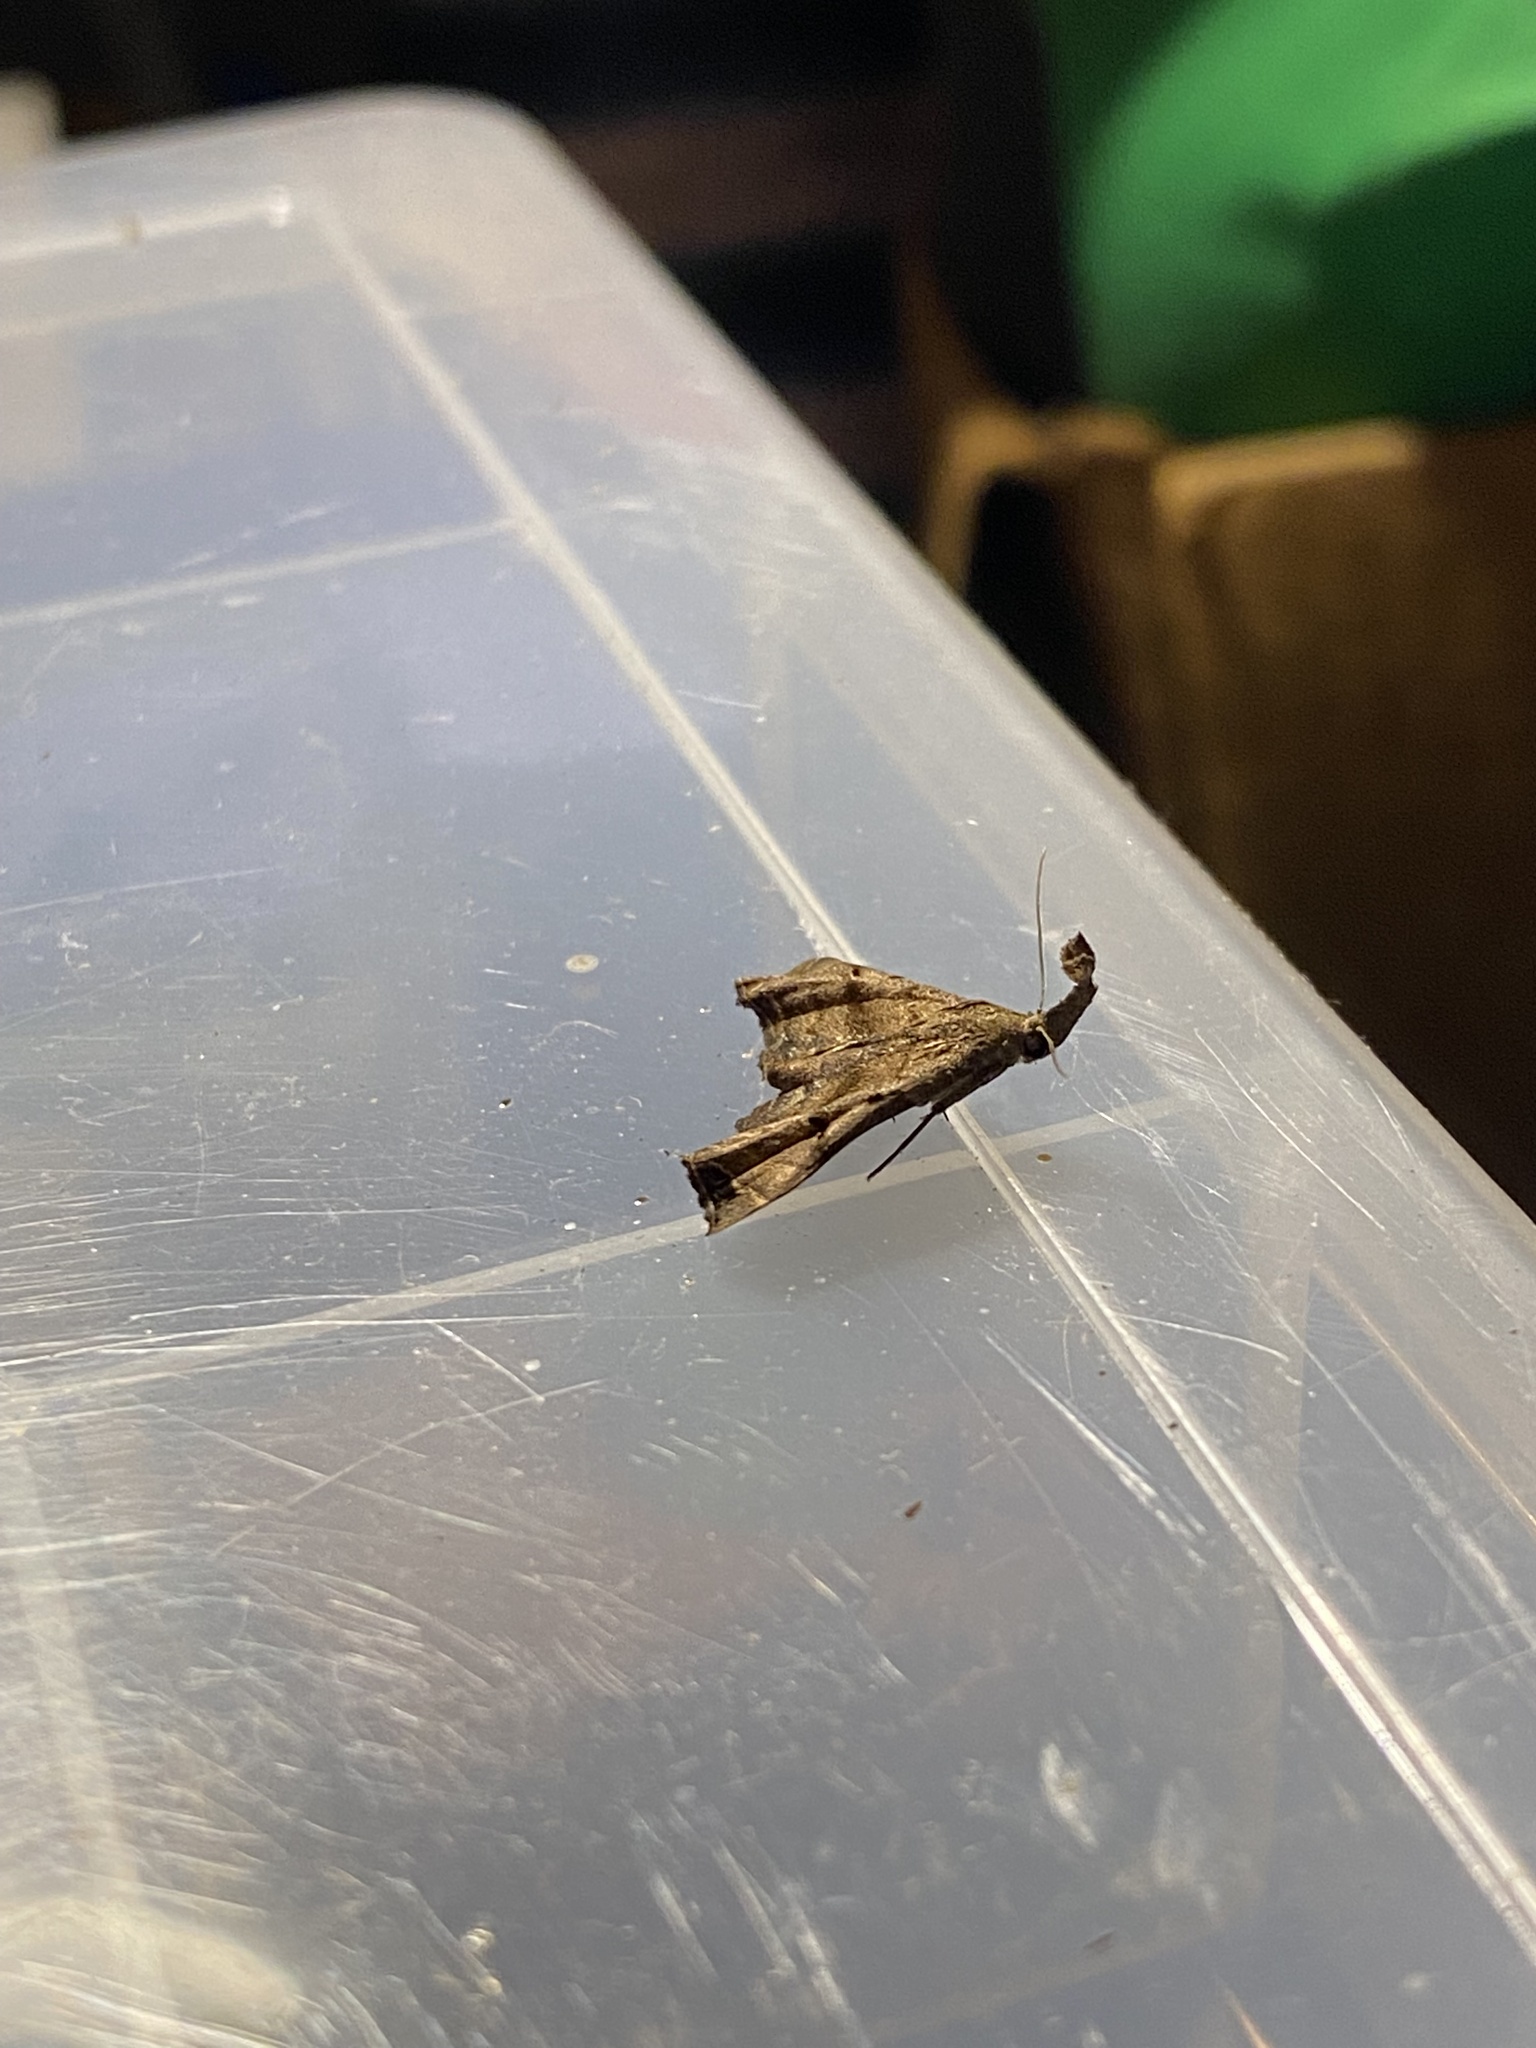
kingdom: Animalia
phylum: Arthropoda
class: Insecta
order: Lepidoptera
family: Erebidae
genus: Palthis
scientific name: Palthis asopialis
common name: Faint-spotted palthis moth
